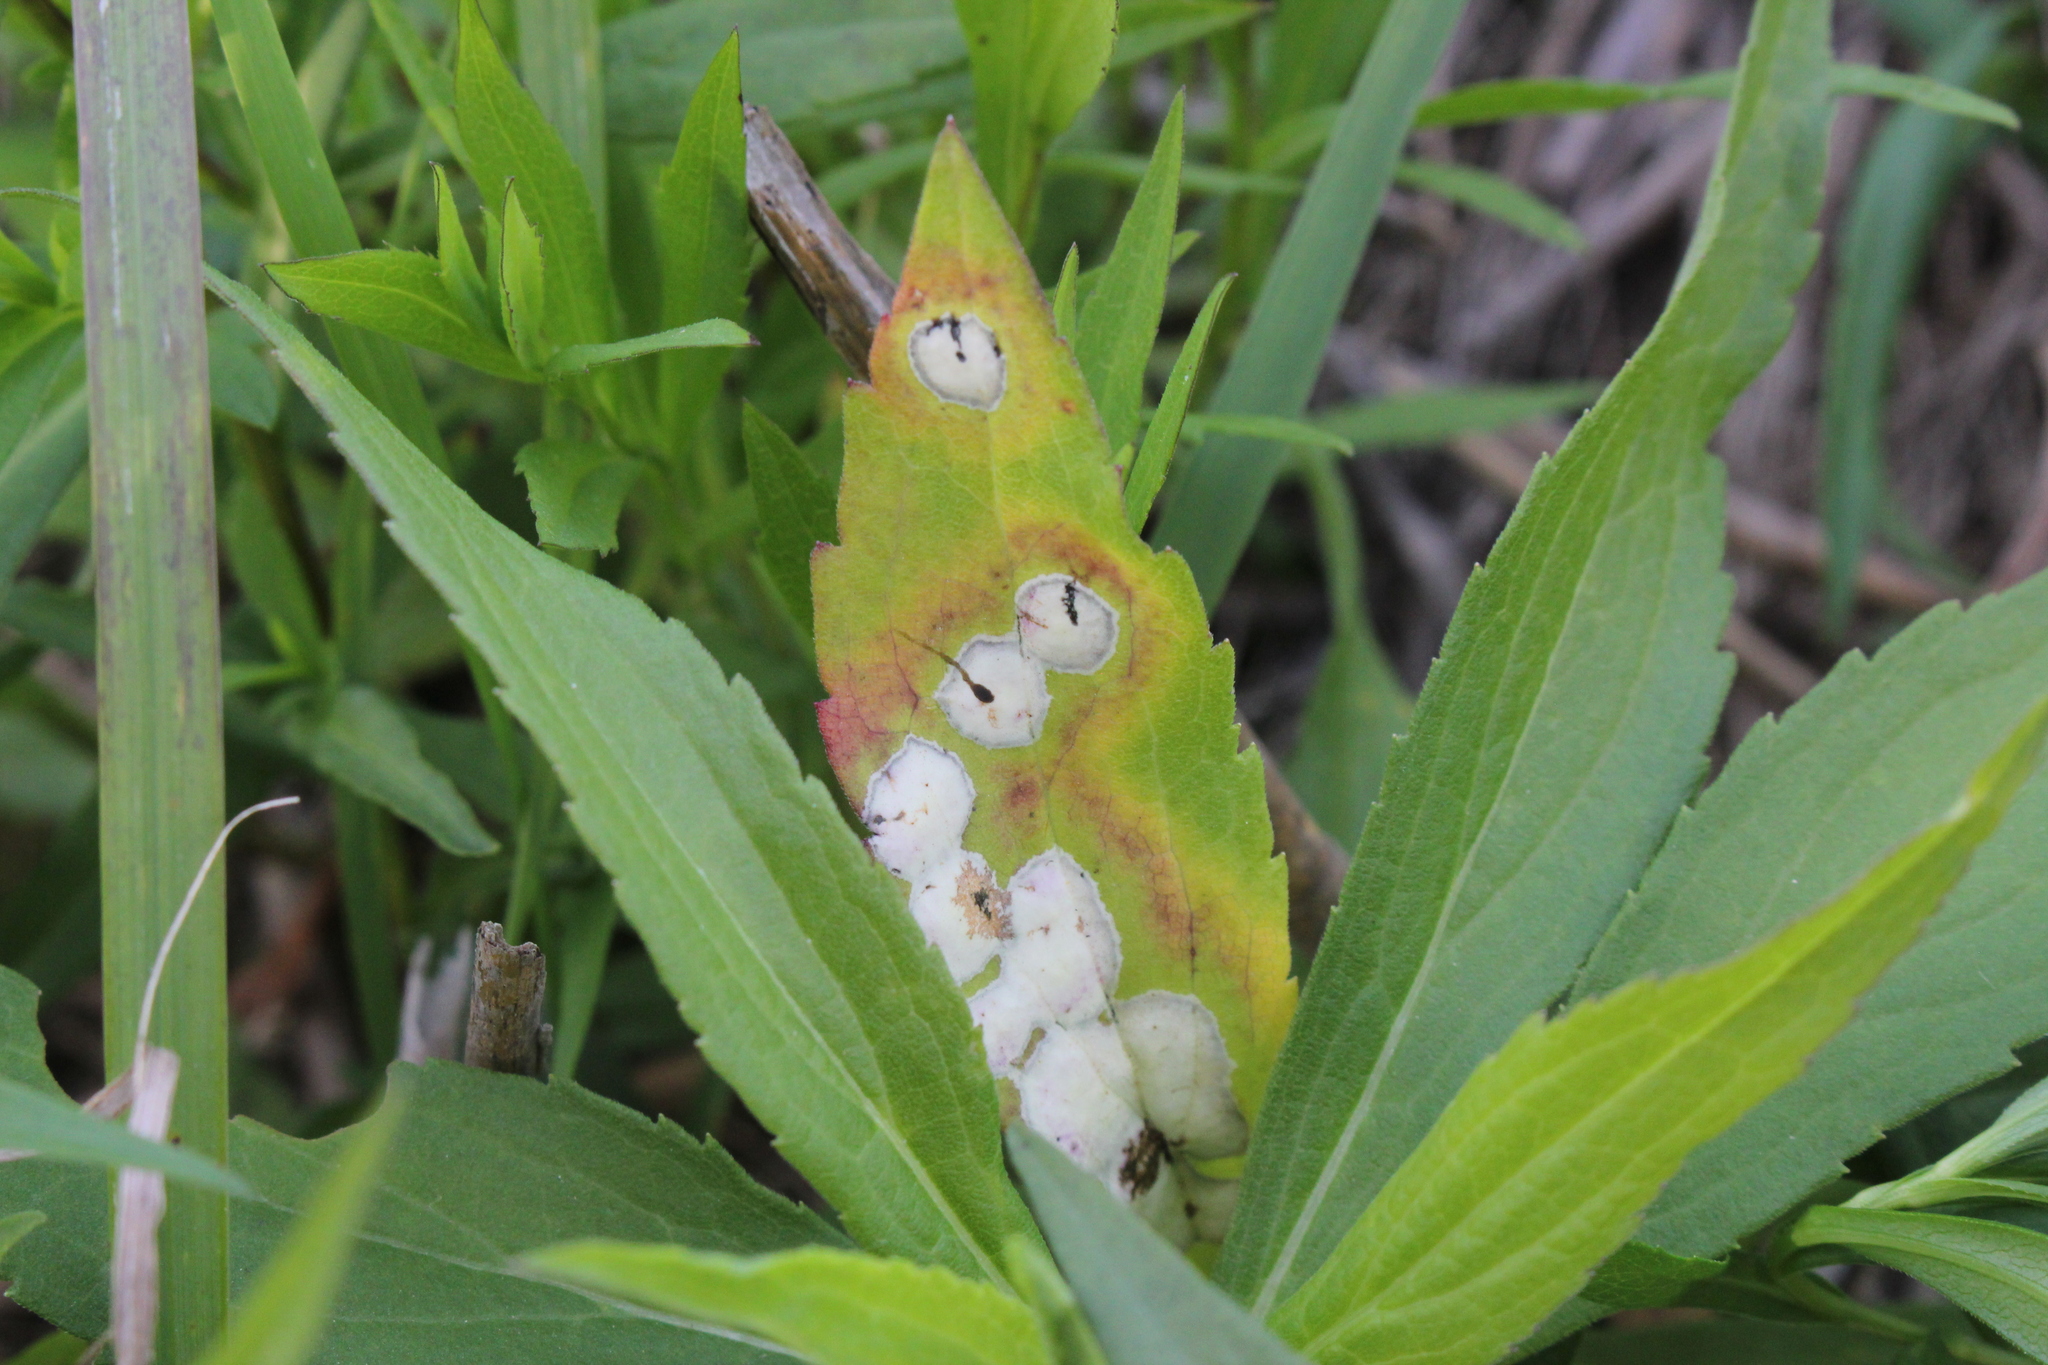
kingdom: Animalia
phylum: Arthropoda
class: Insecta
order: Diptera
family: Cecidomyiidae
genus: Asteromyia
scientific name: Asteromyia carbonifera
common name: Carbonifera goldenrod gall midge
